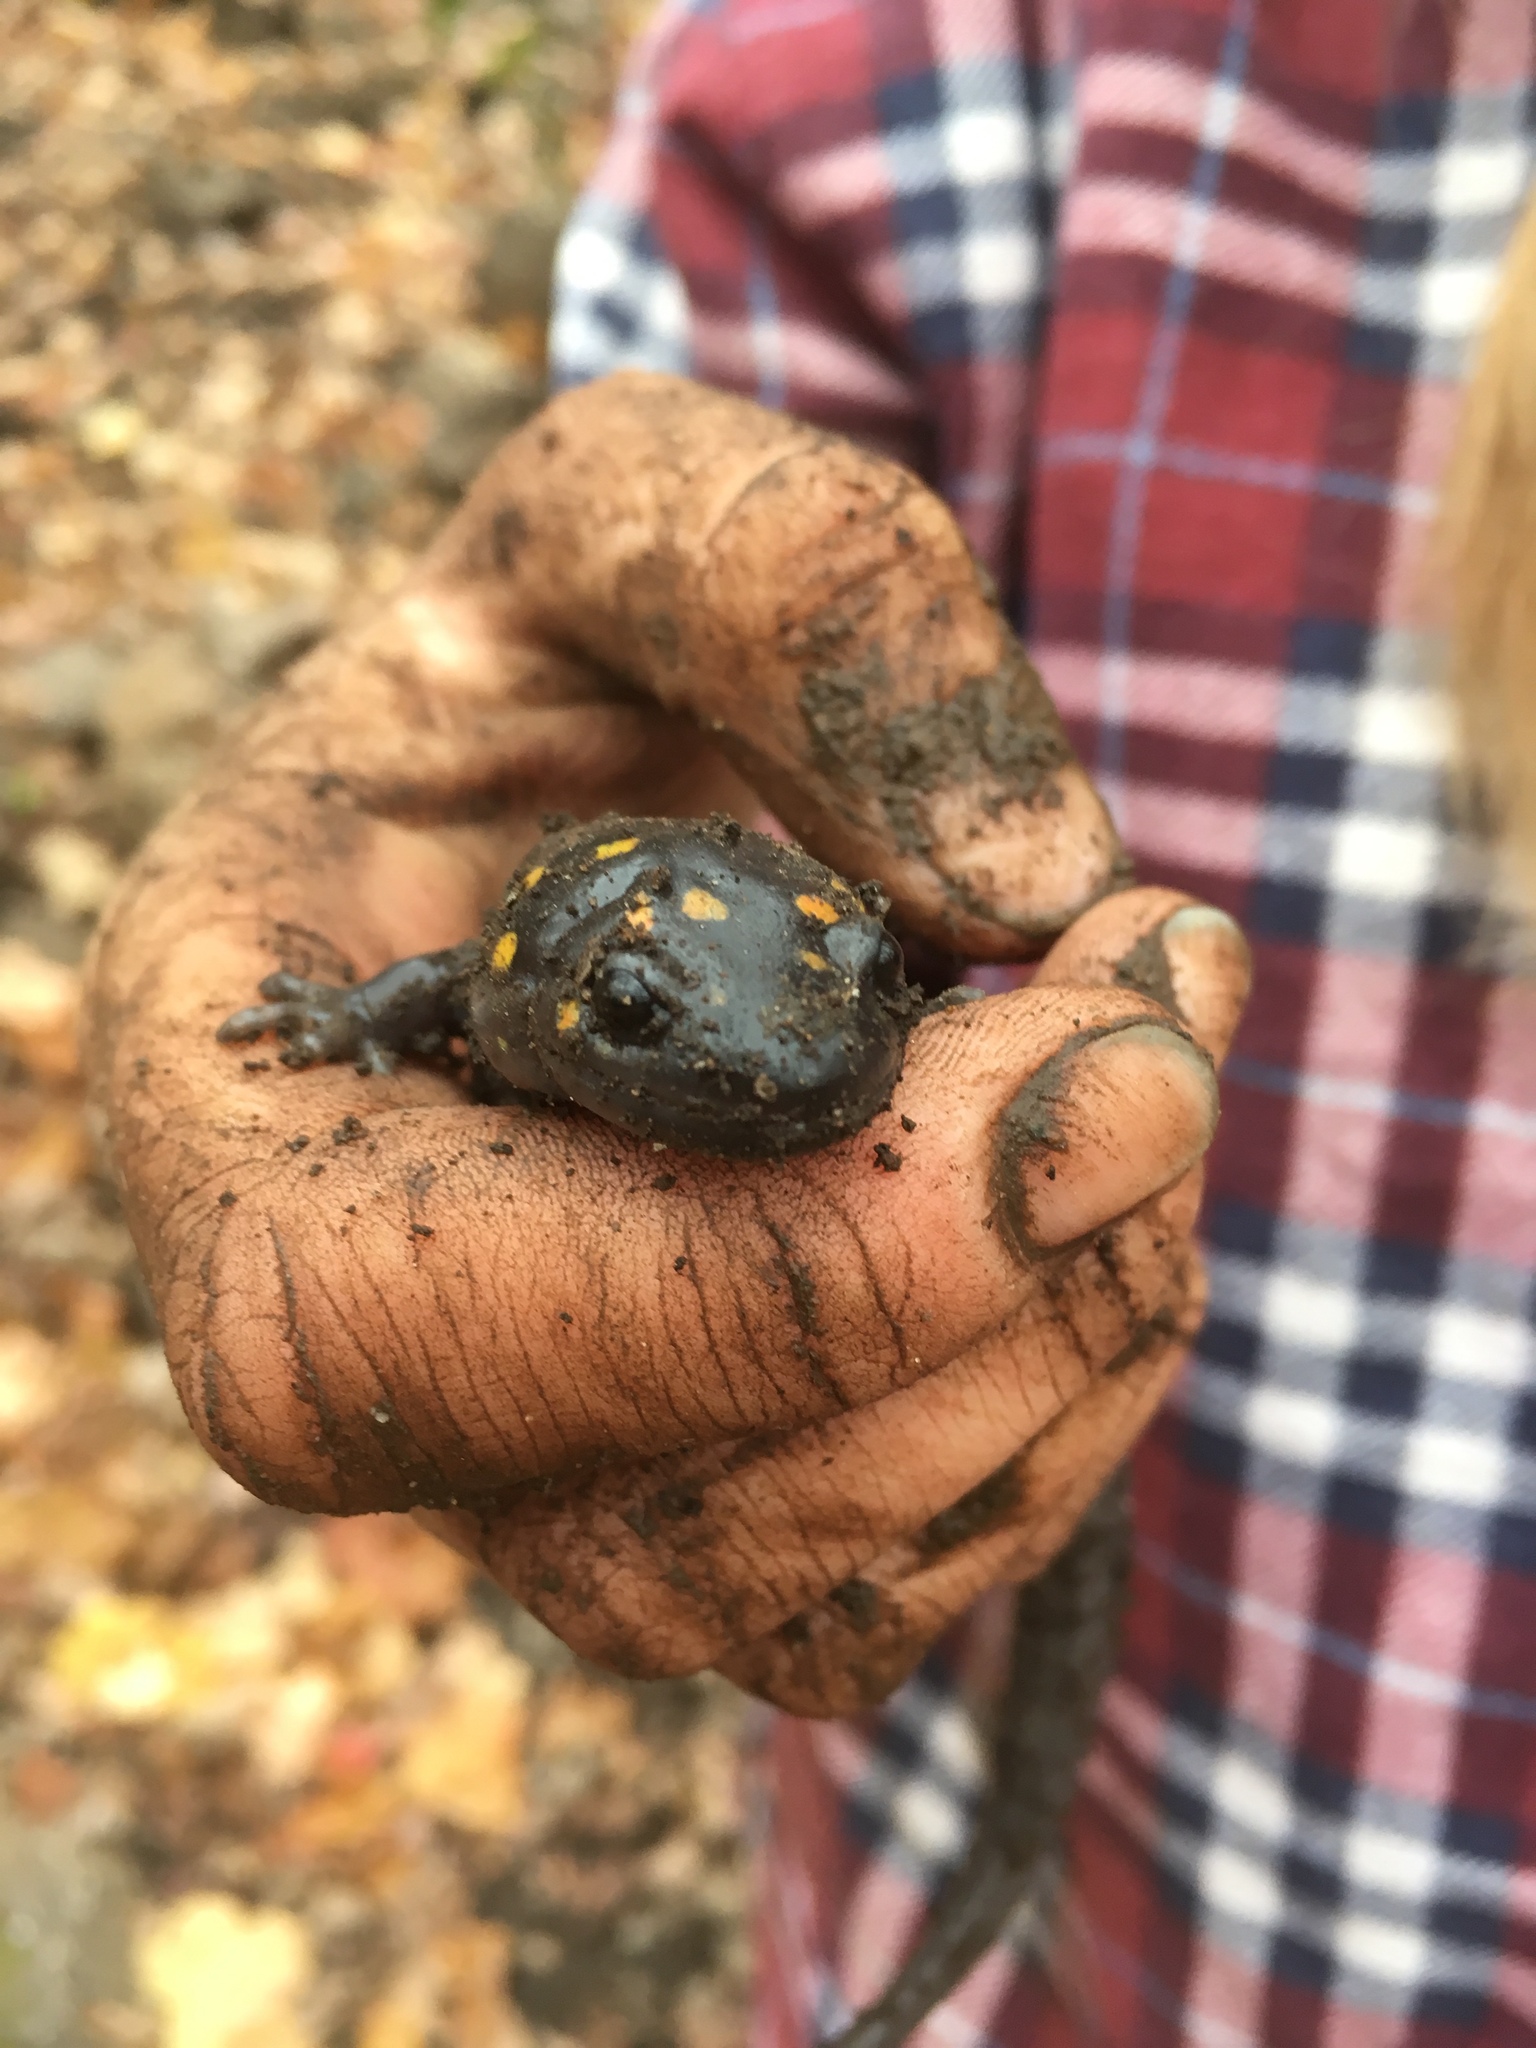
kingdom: Animalia
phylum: Chordata
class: Amphibia
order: Caudata
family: Ambystomatidae
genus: Ambystoma
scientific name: Ambystoma maculatum
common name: Spotted salamander
